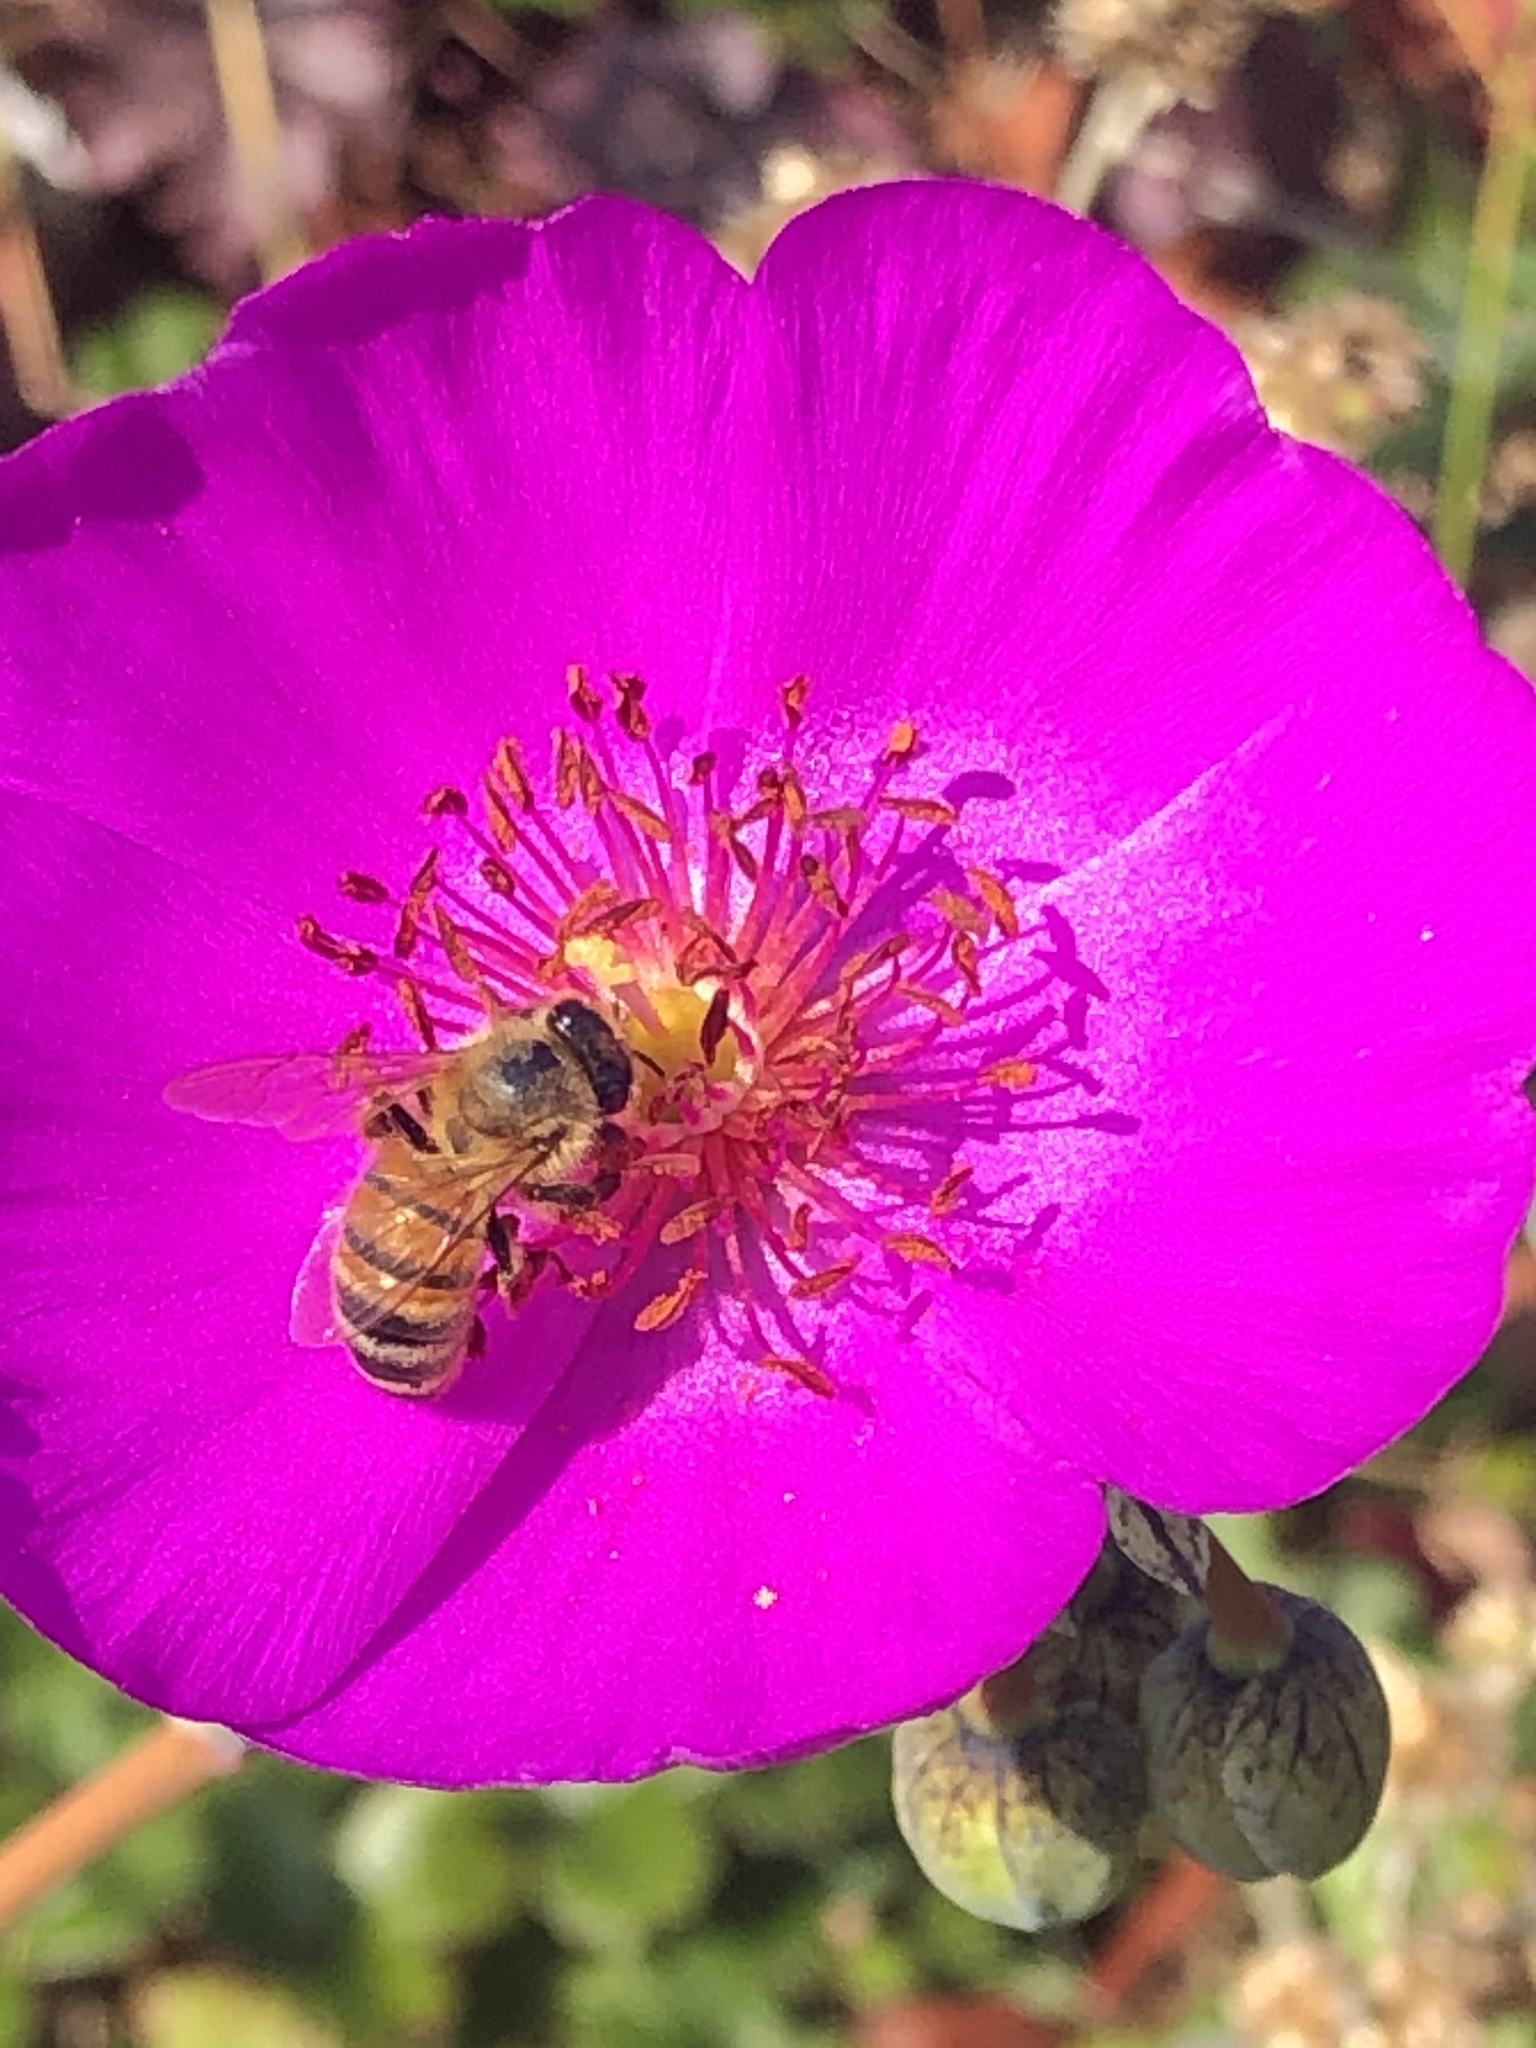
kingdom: Animalia
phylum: Arthropoda
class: Insecta
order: Hymenoptera
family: Apidae
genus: Apis
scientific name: Apis mellifera
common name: Honey bee
